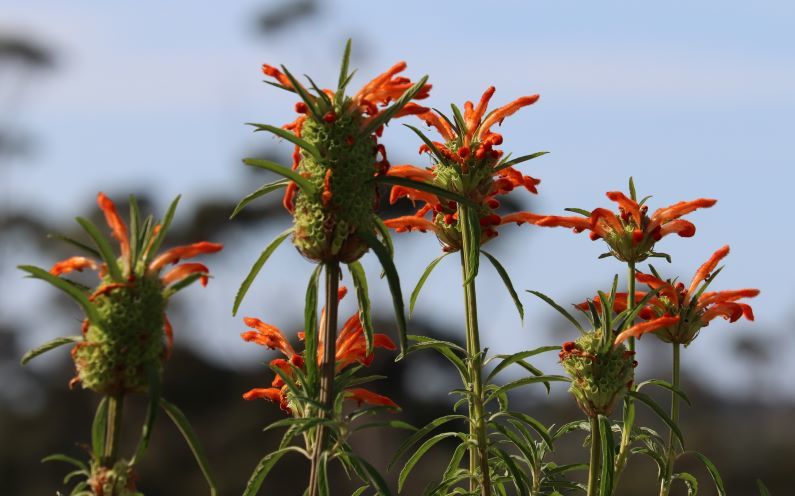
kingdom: Plantae
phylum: Tracheophyta
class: Magnoliopsida
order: Lamiales
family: Lamiaceae
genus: Leonotis
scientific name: Leonotis leonurus
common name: Lion's ear
